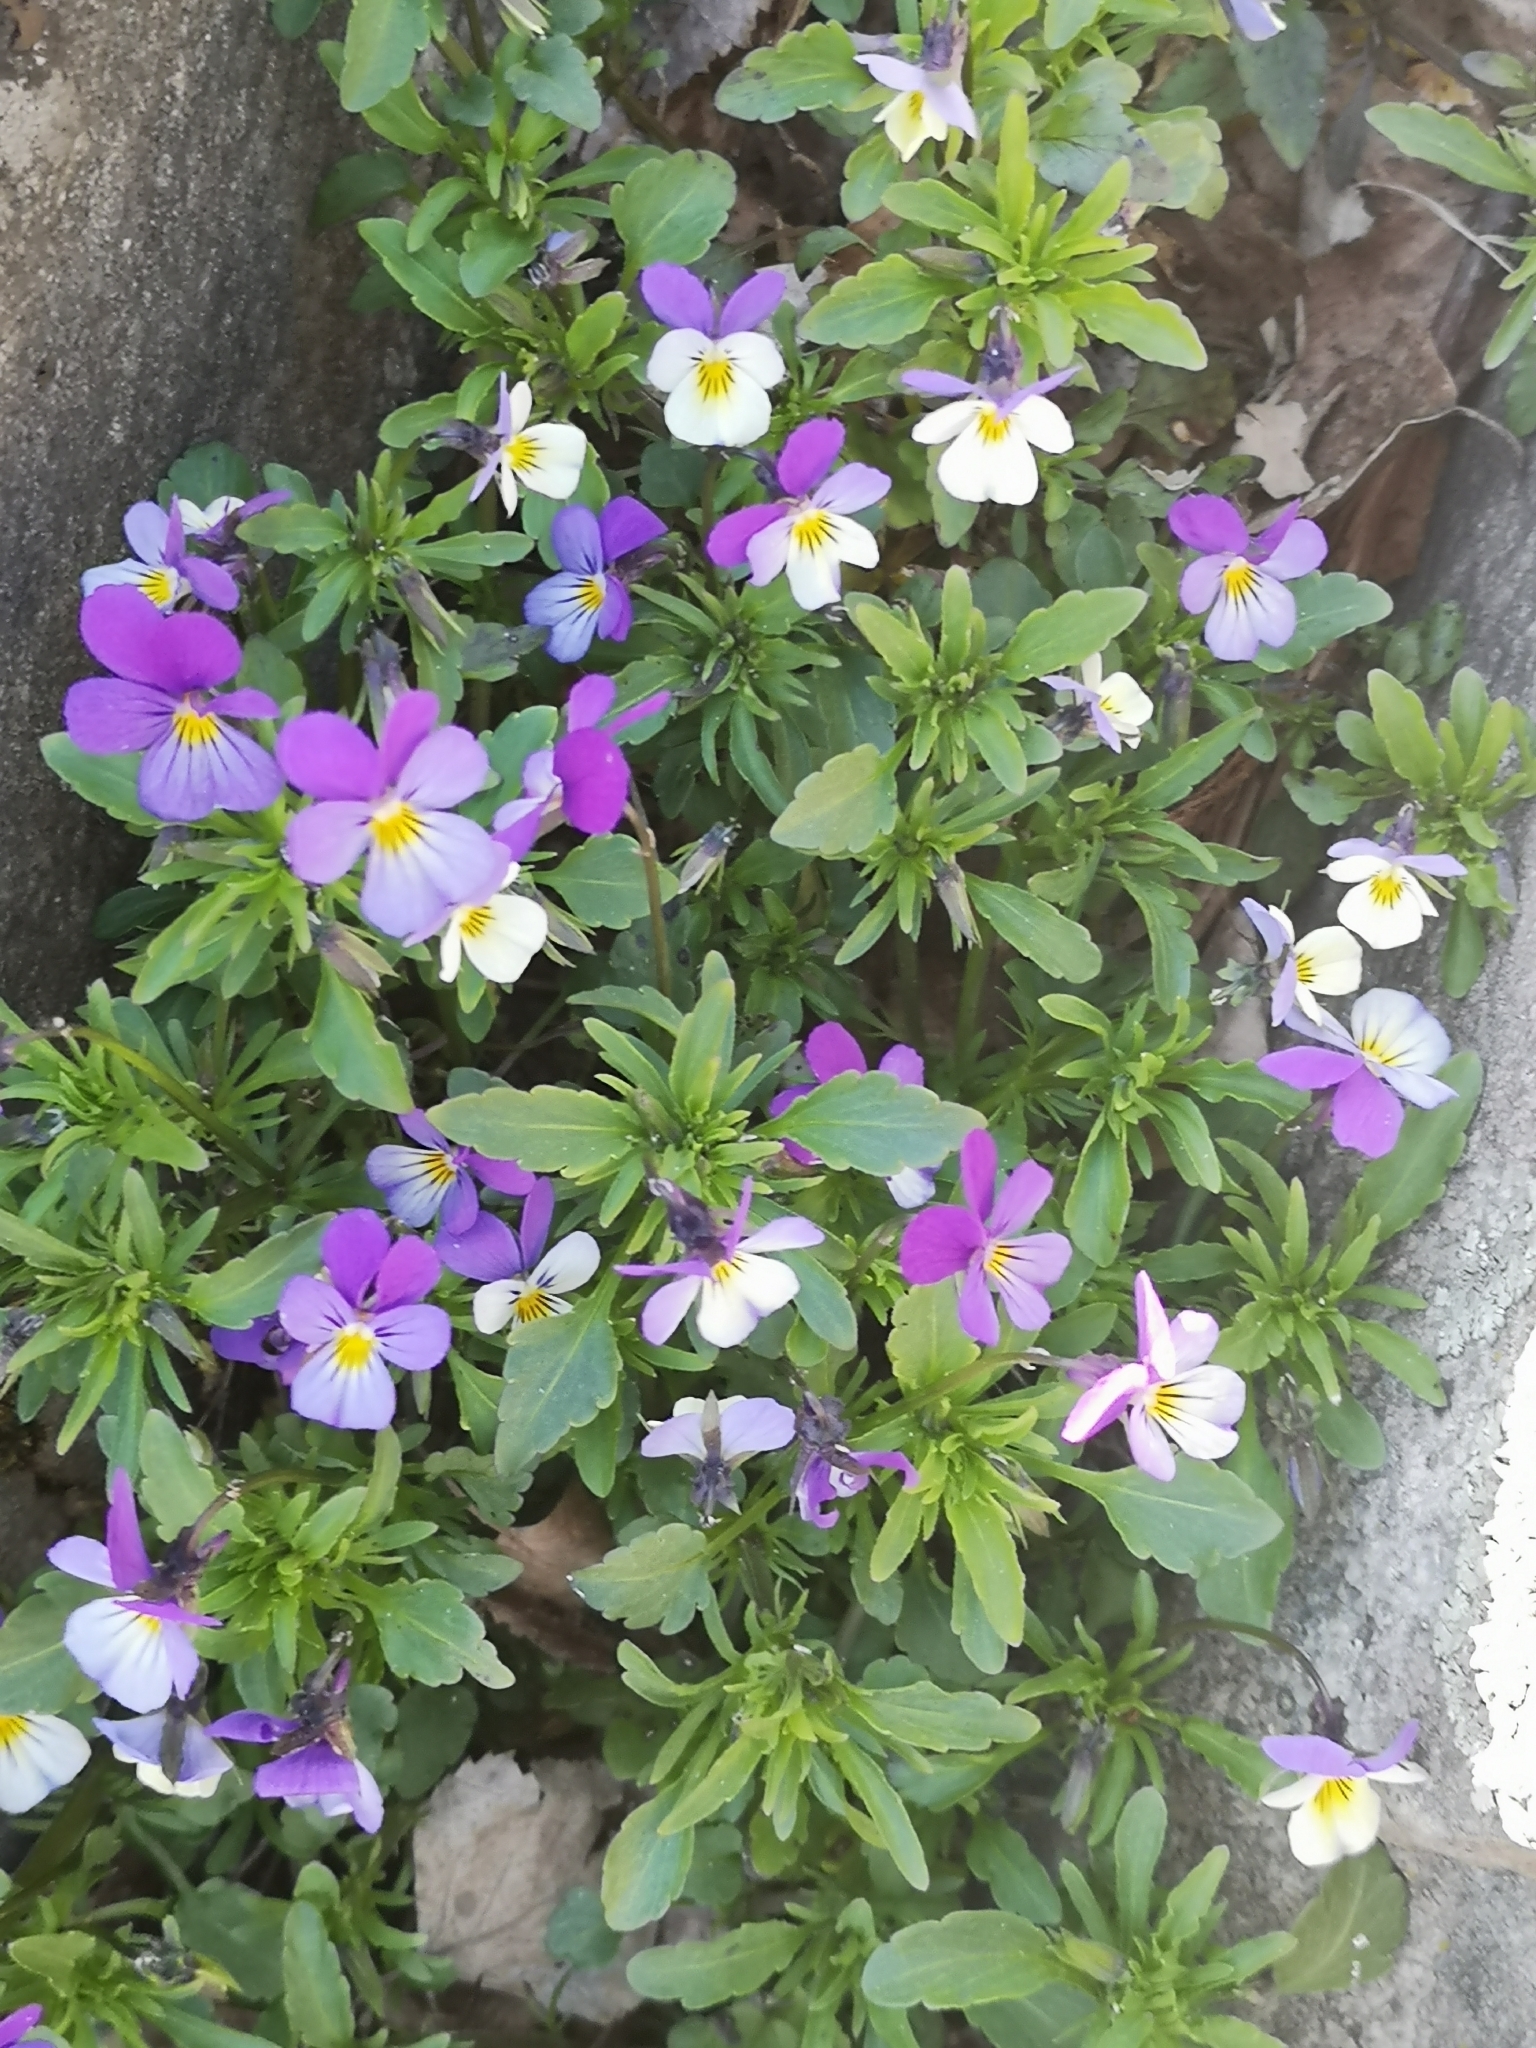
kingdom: Plantae
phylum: Tracheophyta
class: Magnoliopsida
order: Malpighiales
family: Violaceae
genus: Viola
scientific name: Viola tricolor
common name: Pansy
